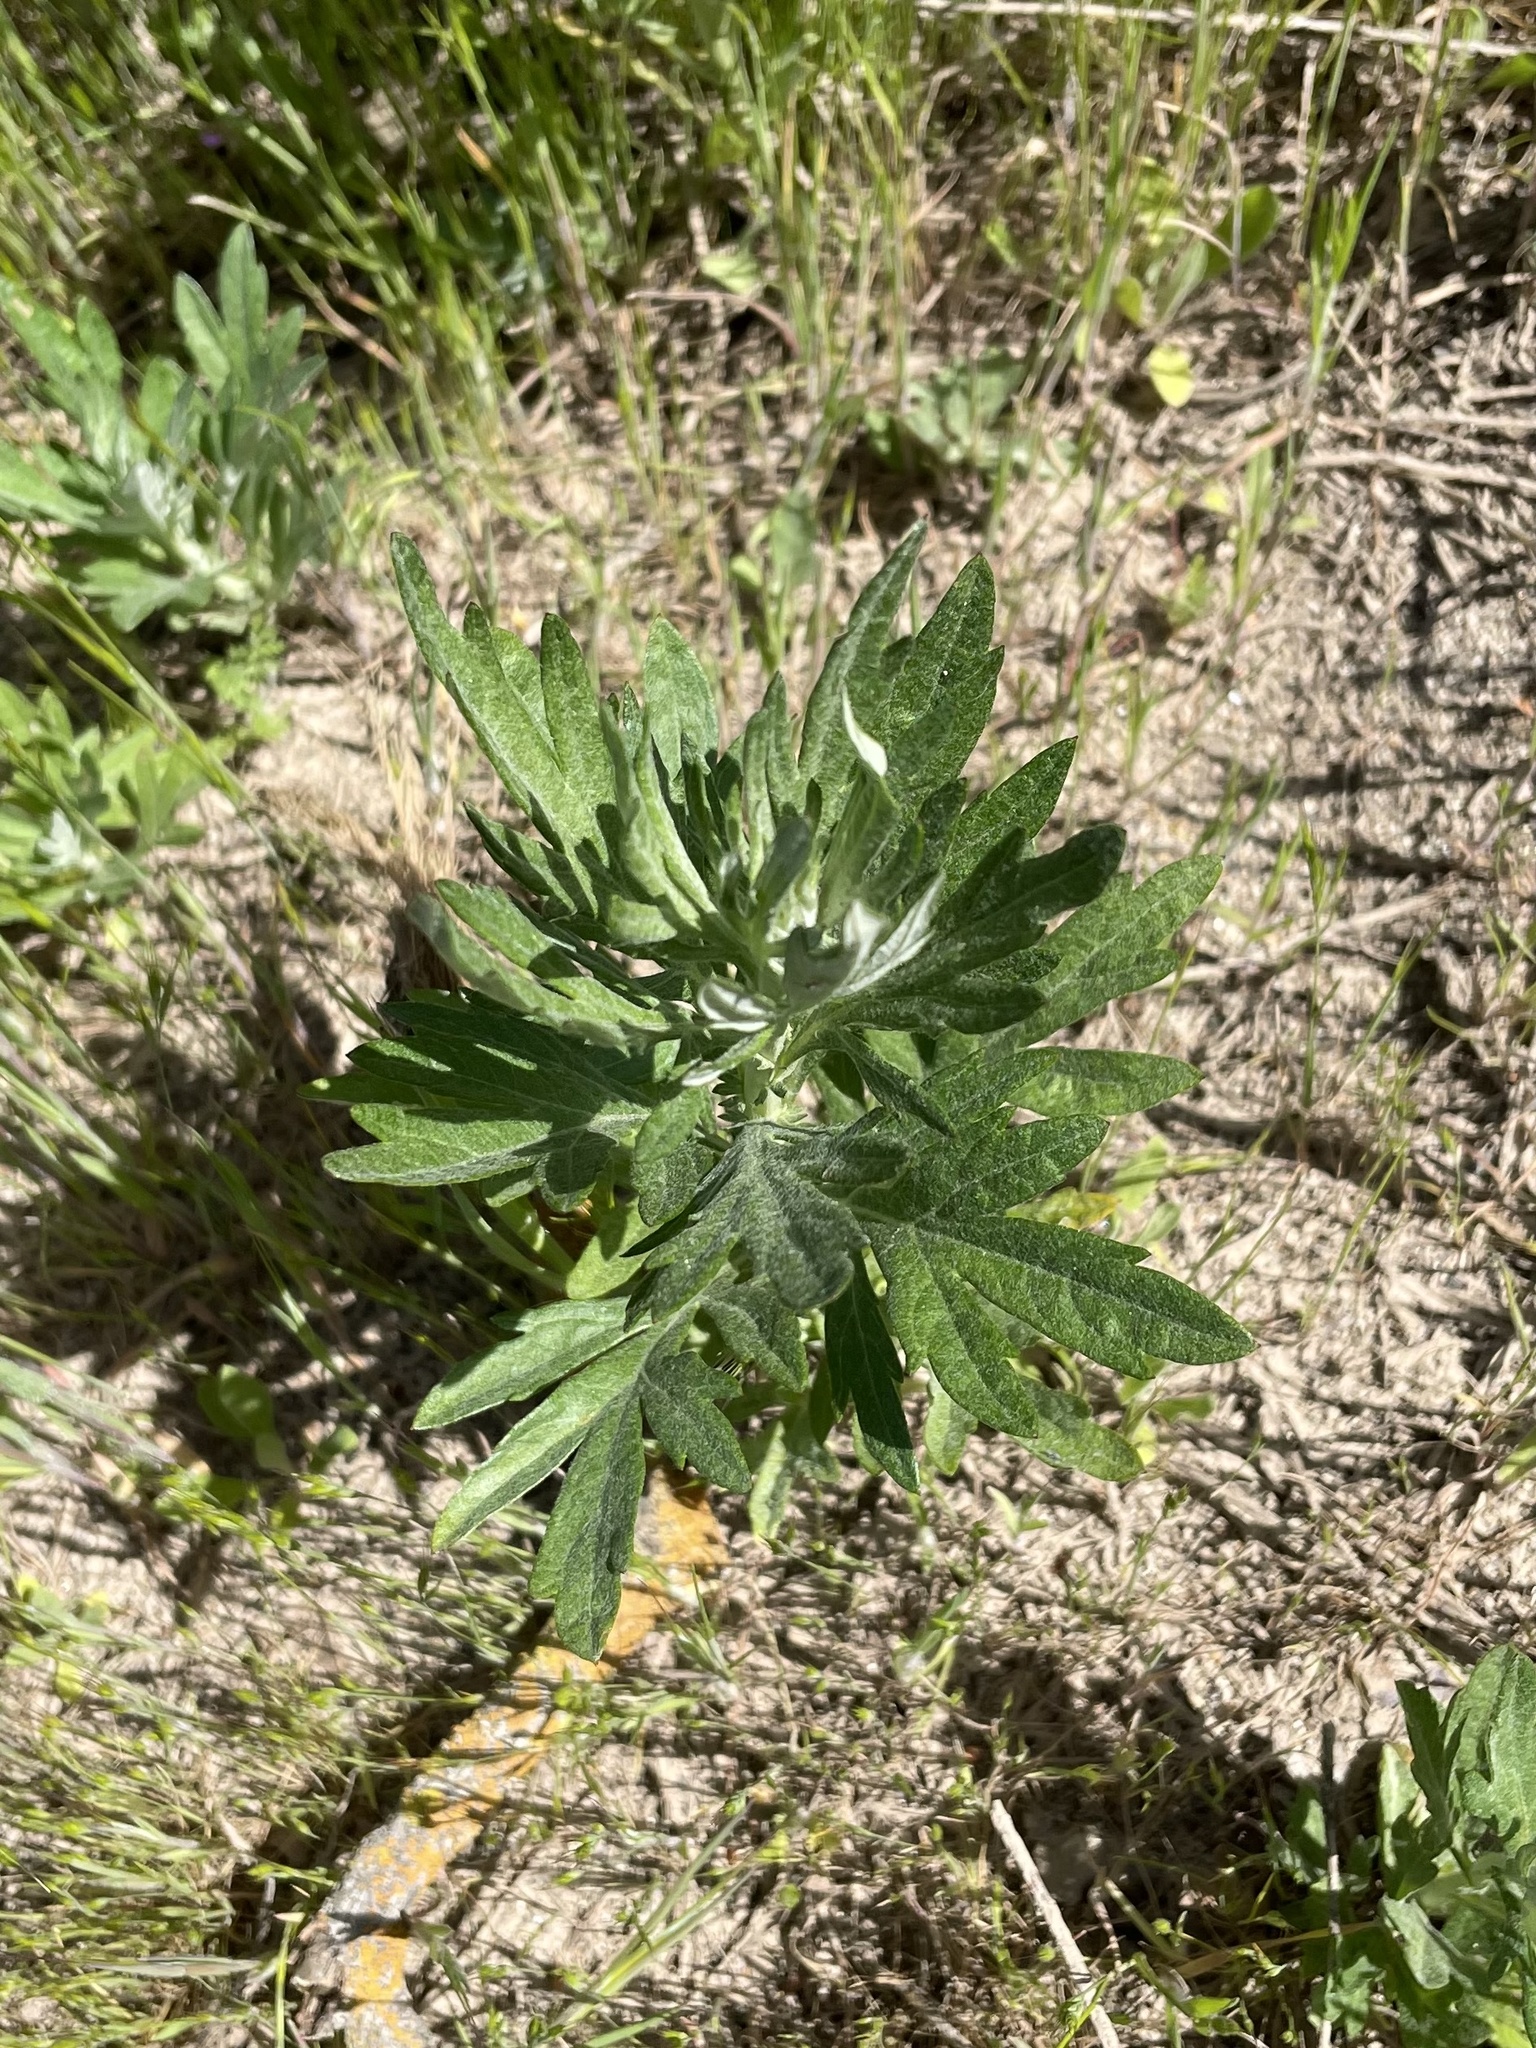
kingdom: Plantae
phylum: Tracheophyta
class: Magnoliopsida
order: Asterales
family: Asteraceae
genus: Artemisia
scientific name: Artemisia douglasiana
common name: Northwest mugwort
